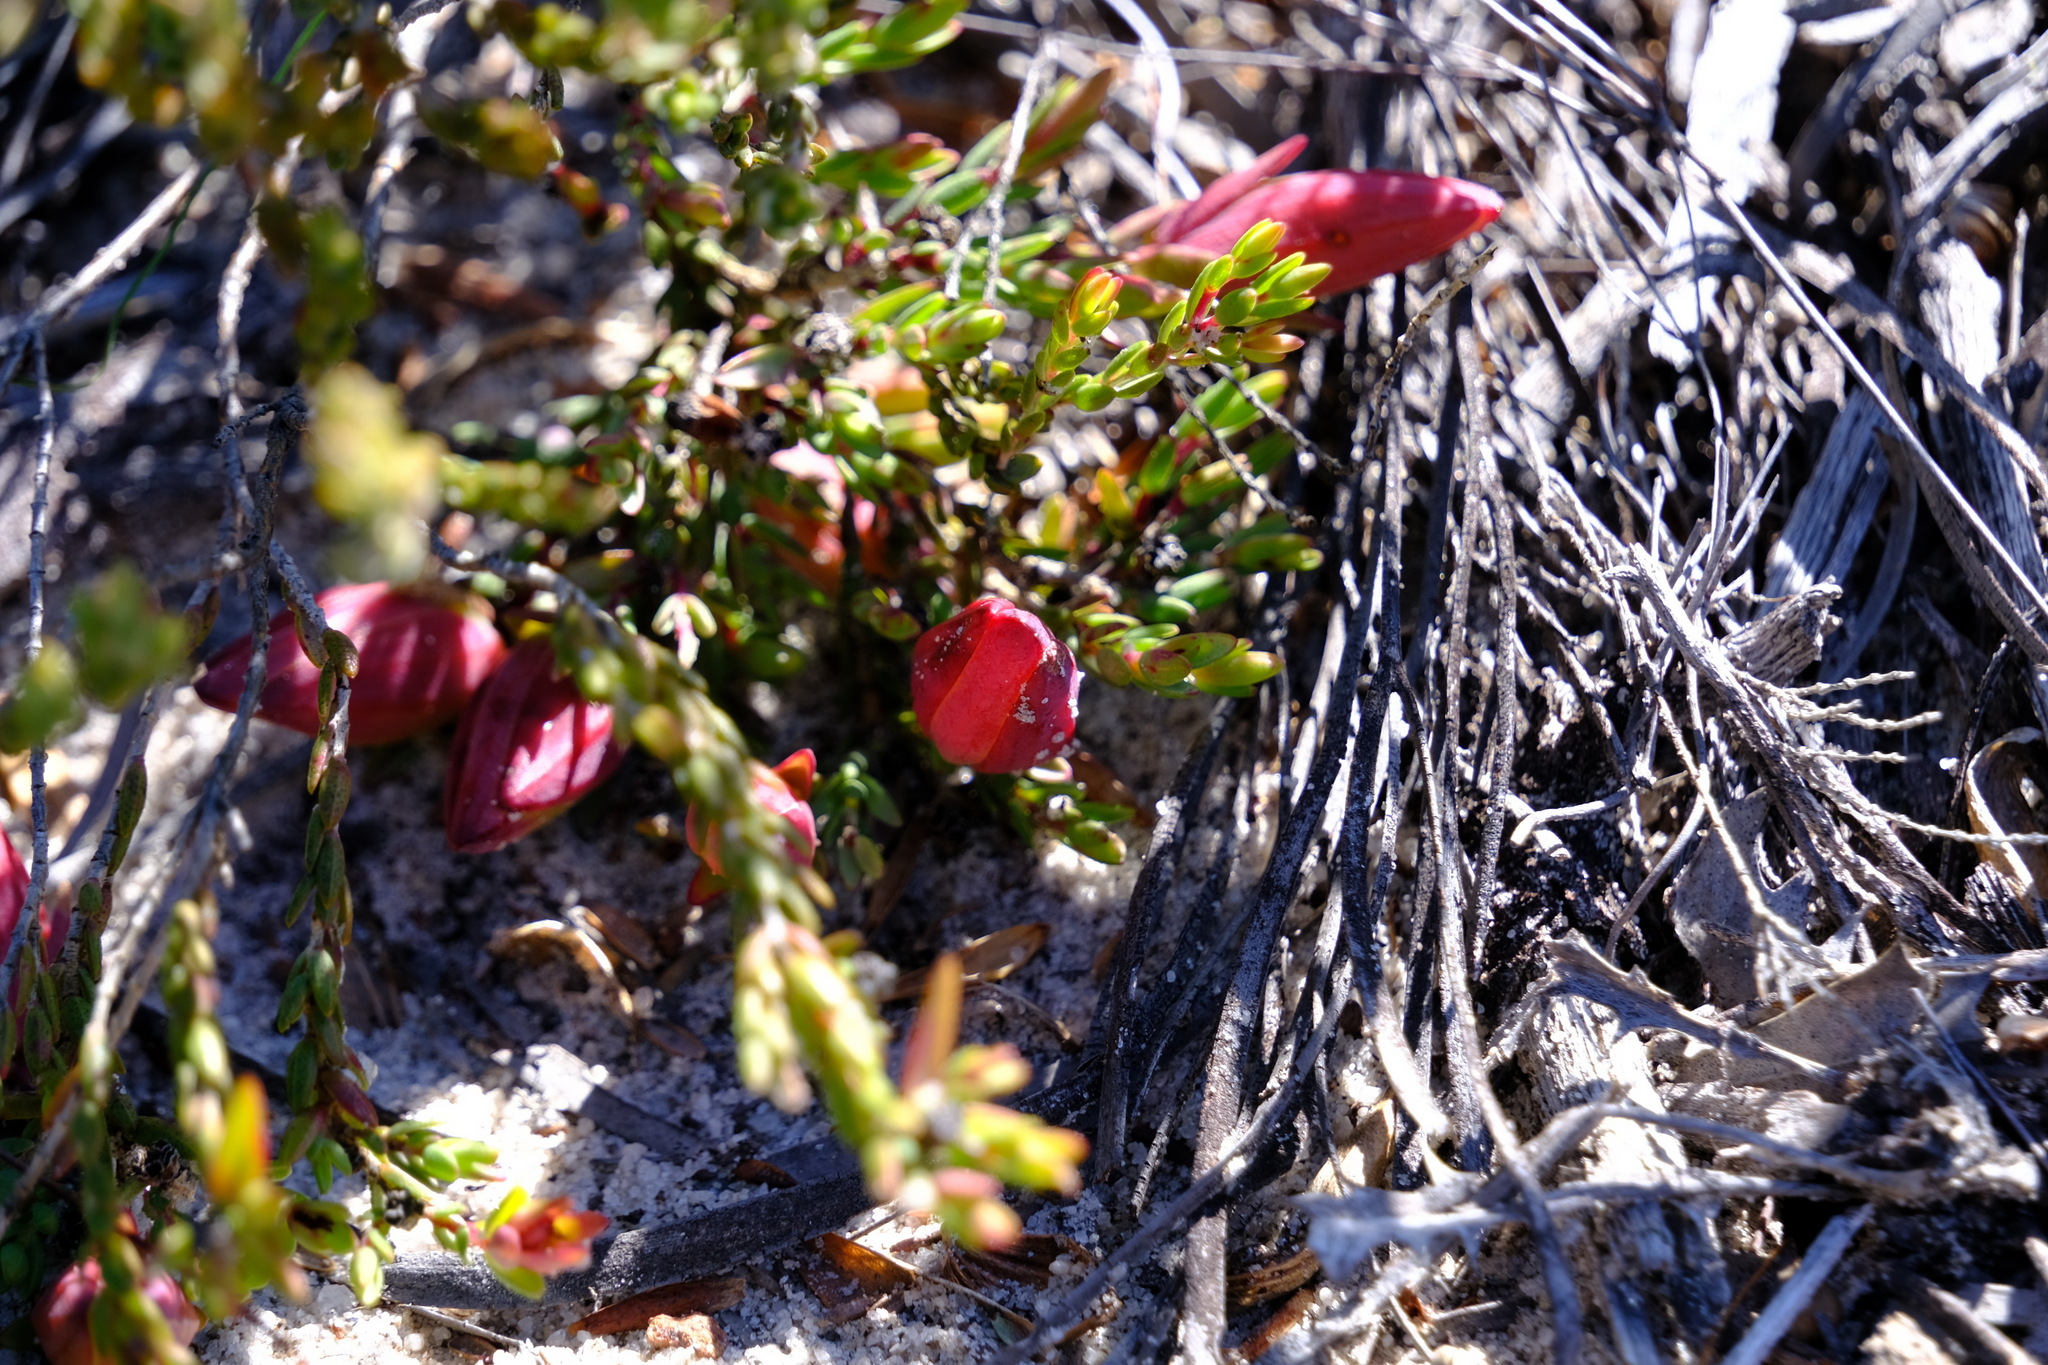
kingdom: Plantae
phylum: Tracheophyta
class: Magnoliopsida
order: Myrtales
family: Myrtaceae
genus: Darwinia
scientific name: Darwinia speciosa
